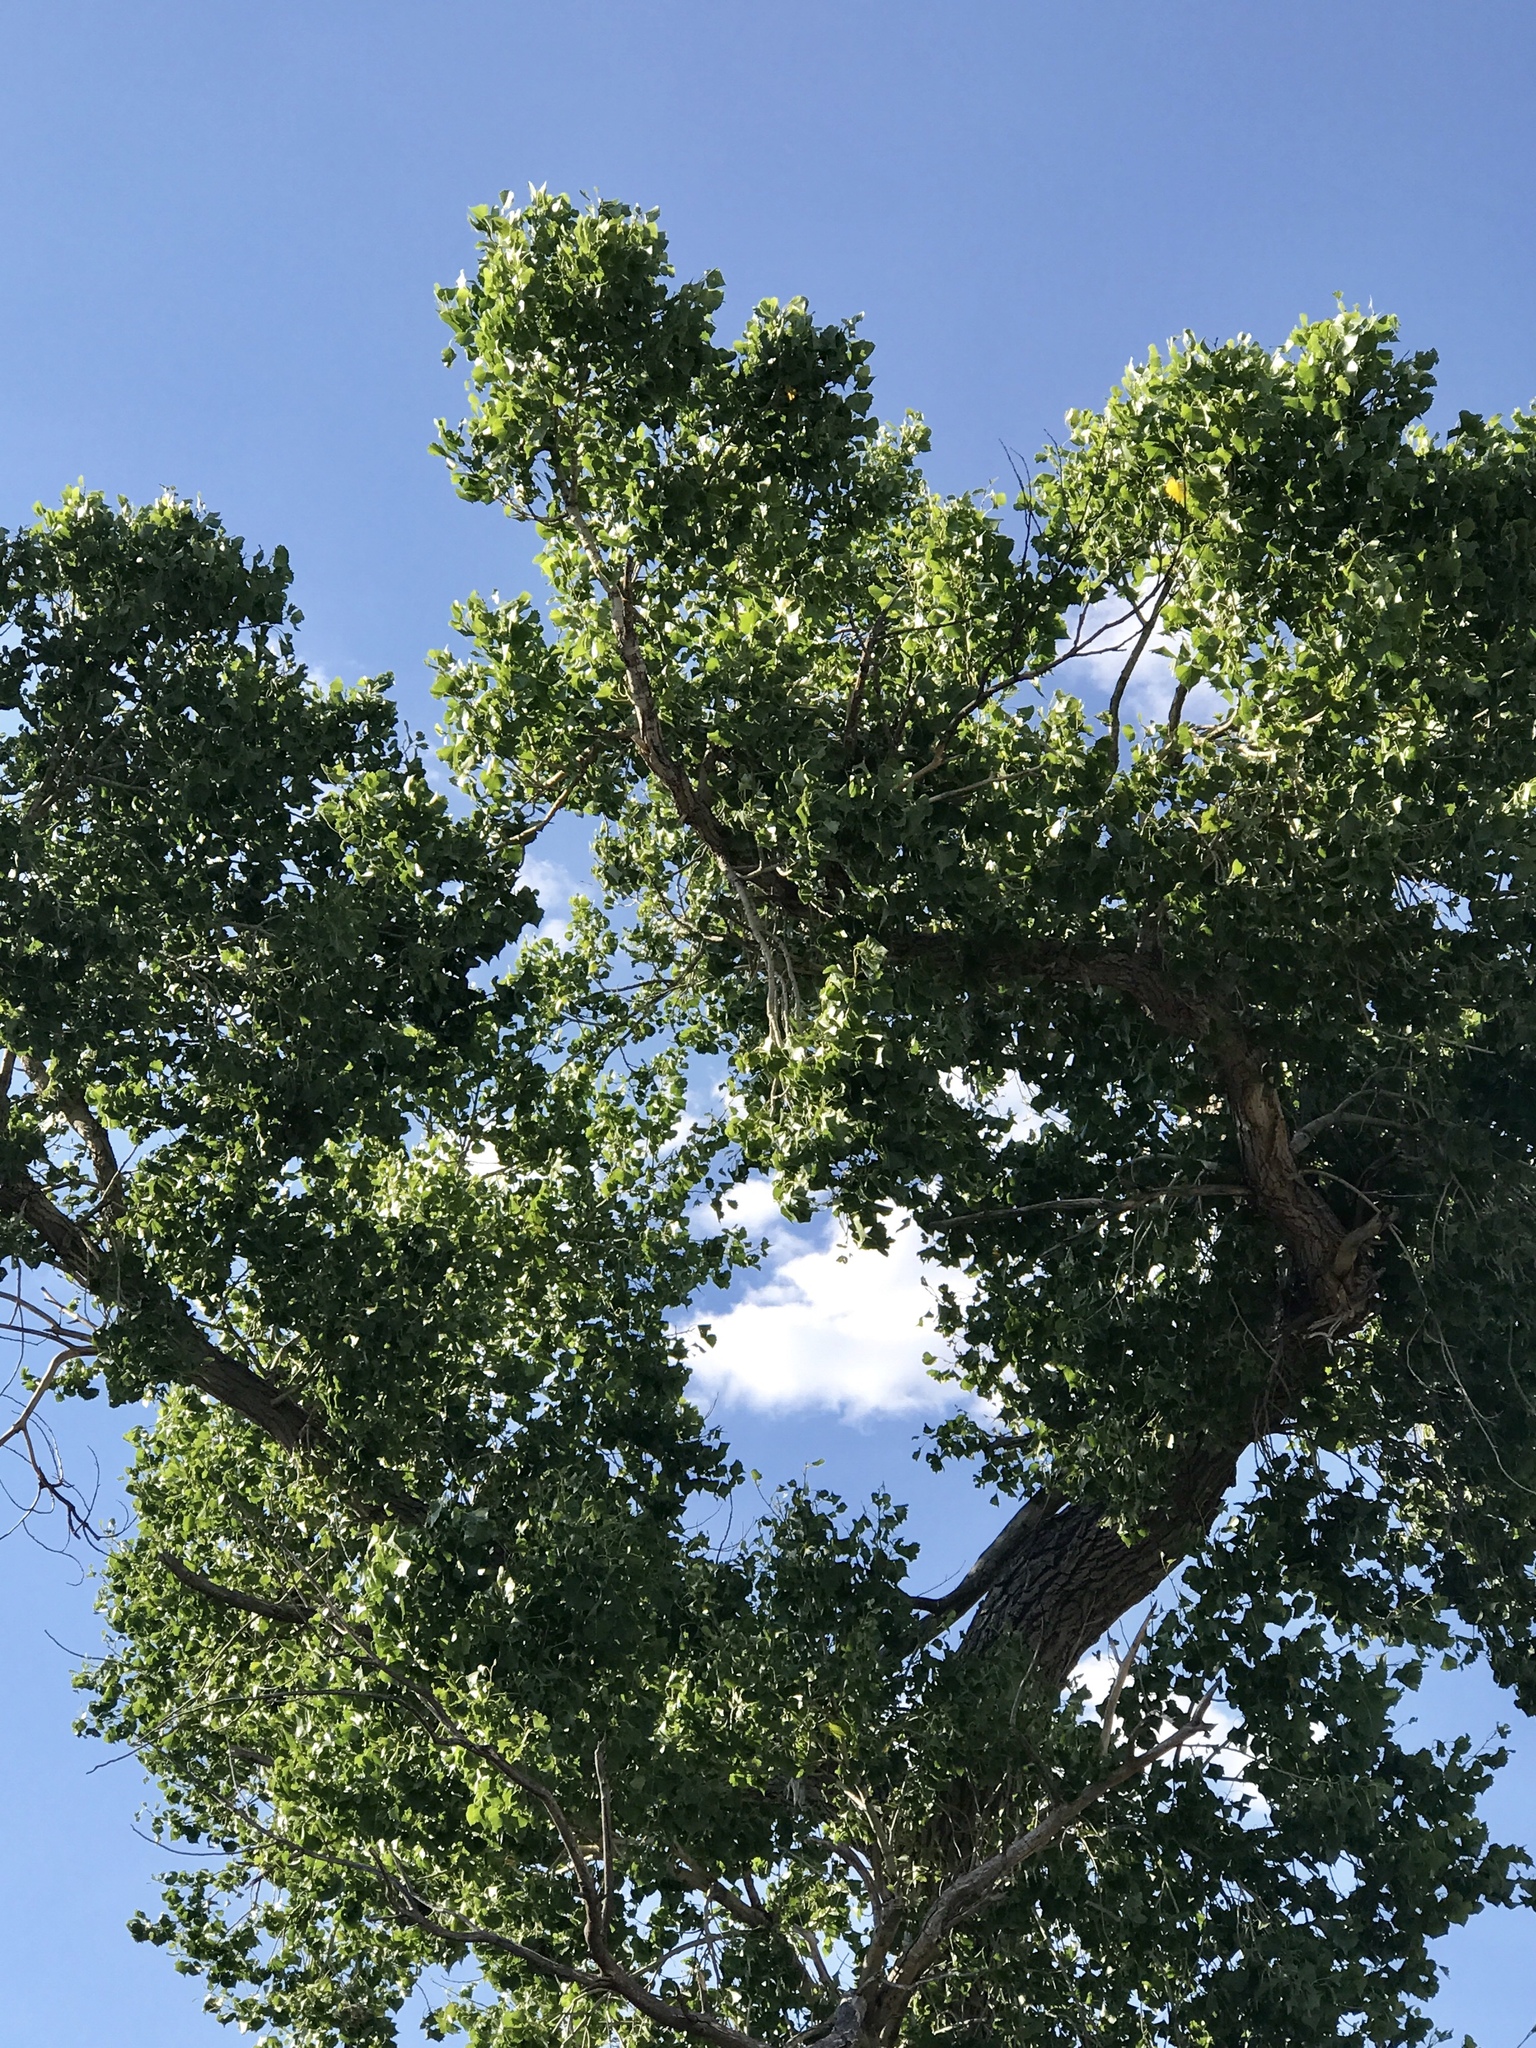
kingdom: Plantae
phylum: Tracheophyta
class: Magnoliopsida
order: Malpighiales
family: Salicaceae
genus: Populus
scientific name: Populus fremontii
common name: Fremont's cottonwood
